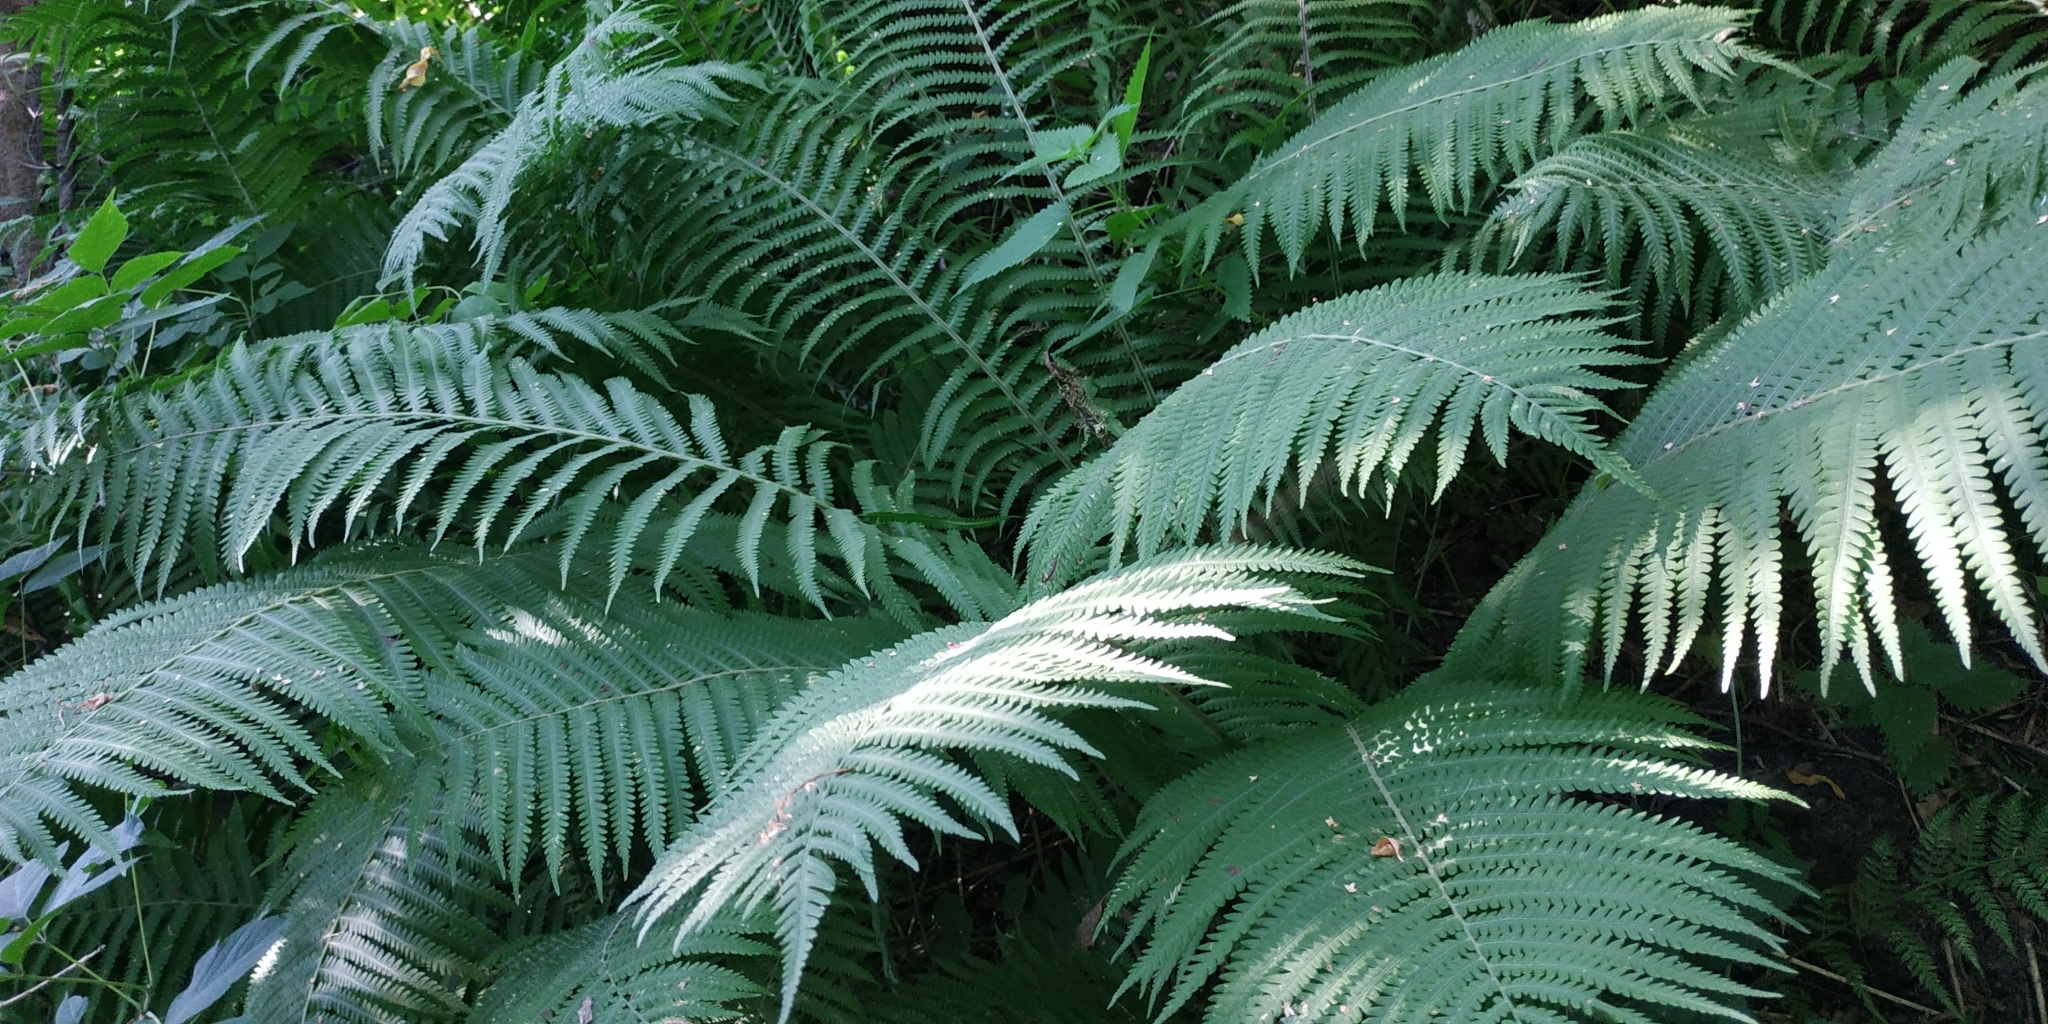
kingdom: Plantae
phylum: Tracheophyta
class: Polypodiopsida
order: Polypodiales
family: Onocleaceae
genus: Matteuccia
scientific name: Matteuccia struthiopteris
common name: Ostrich fern
